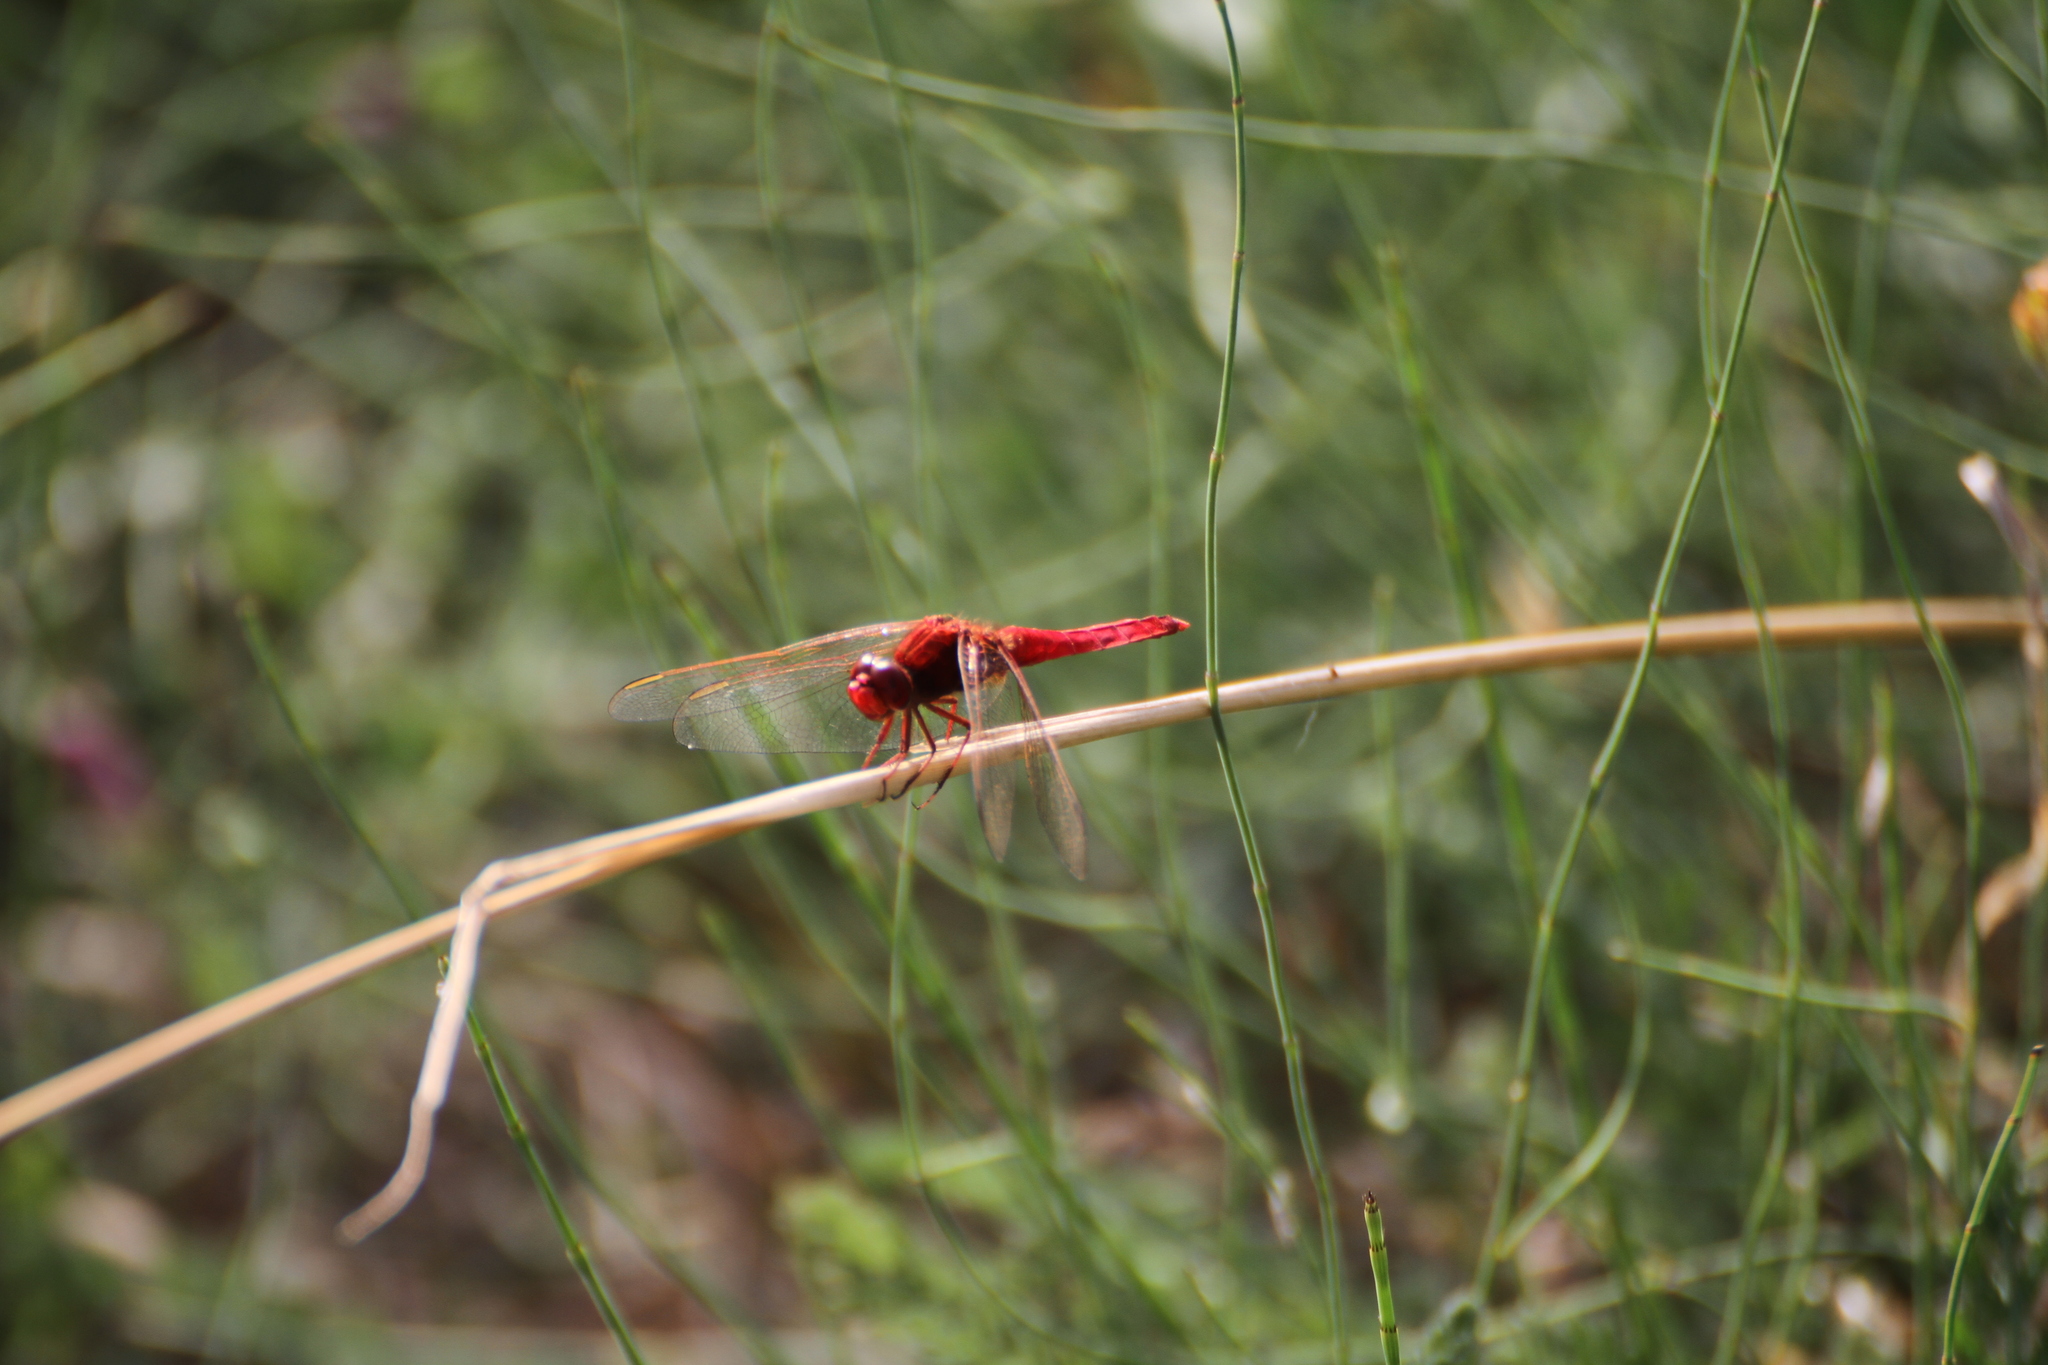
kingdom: Animalia
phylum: Arthropoda
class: Insecta
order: Odonata
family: Libellulidae
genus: Crocothemis
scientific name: Crocothemis erythraea
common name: Scarlet dragonfly
